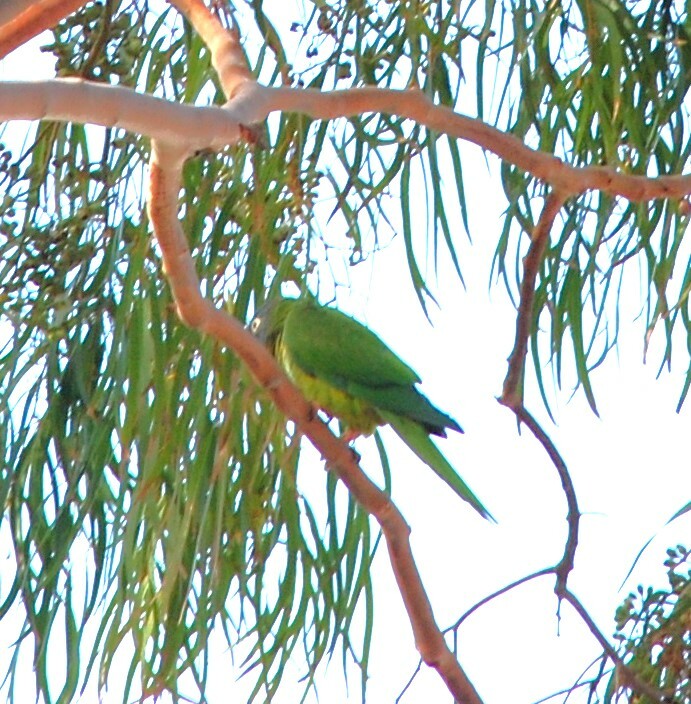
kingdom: Animalia
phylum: Chordata
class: Aves
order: Psittaciformes
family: Psittacidae
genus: Aratinga
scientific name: Aratinga acuticaudata
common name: Blue-crowned parakeet
